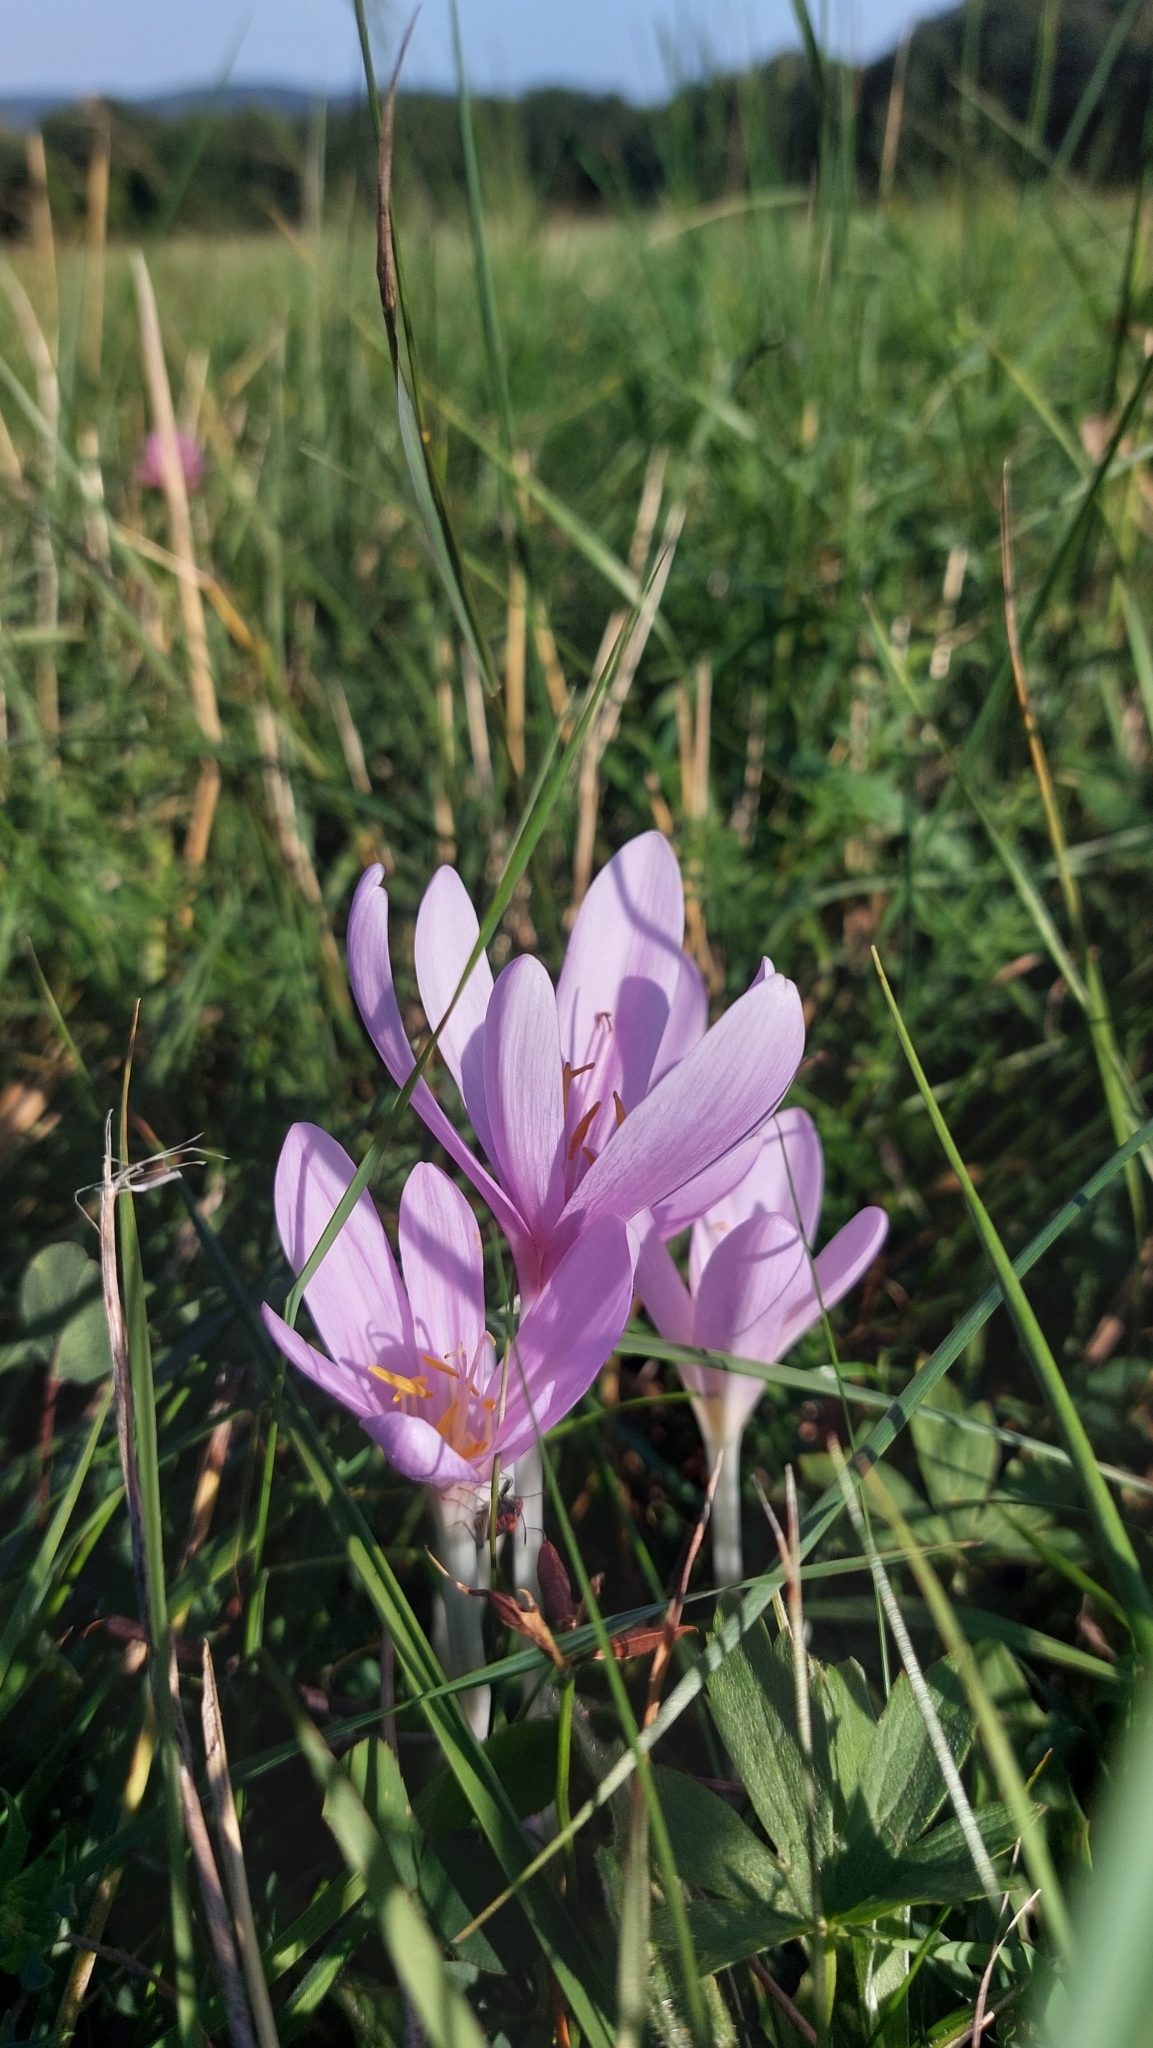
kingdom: Plantae
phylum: Tracheophyta
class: Liliopsida
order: Liliales
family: Colchicaceae
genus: Colchicum
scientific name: Colchicum autumnale
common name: Autumn crocus
